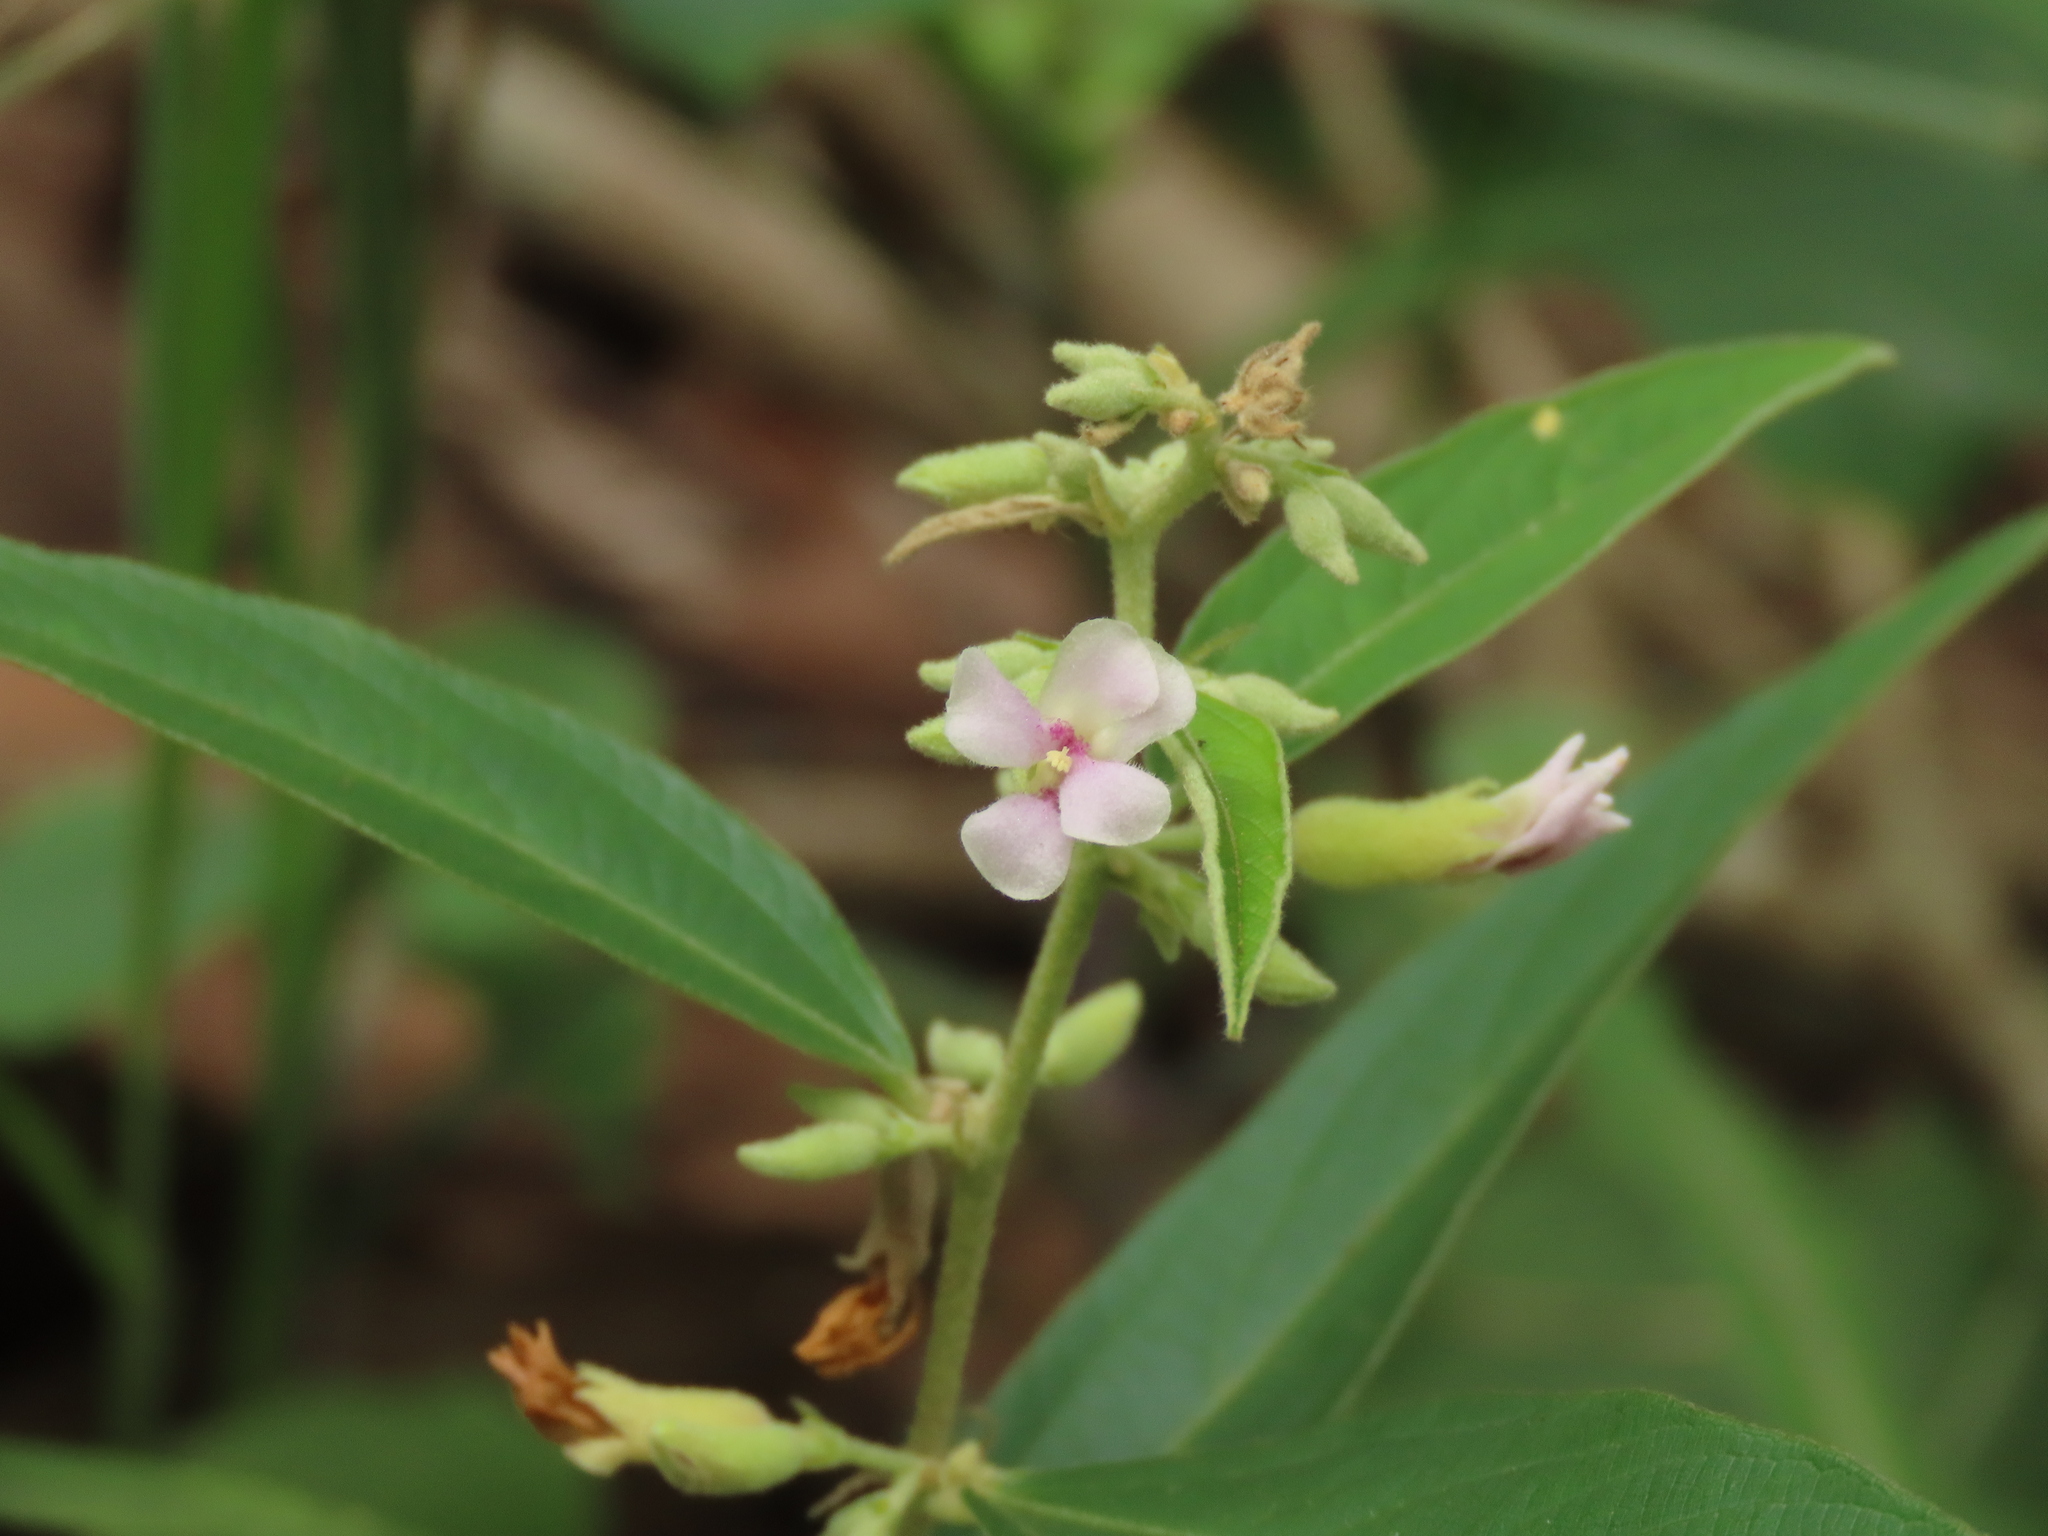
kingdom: Plantae
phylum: Tracheophyta
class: Magnoliopsida
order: Malvales
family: Malvaceae
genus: Helicteres
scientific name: Helicteres angustifolia
